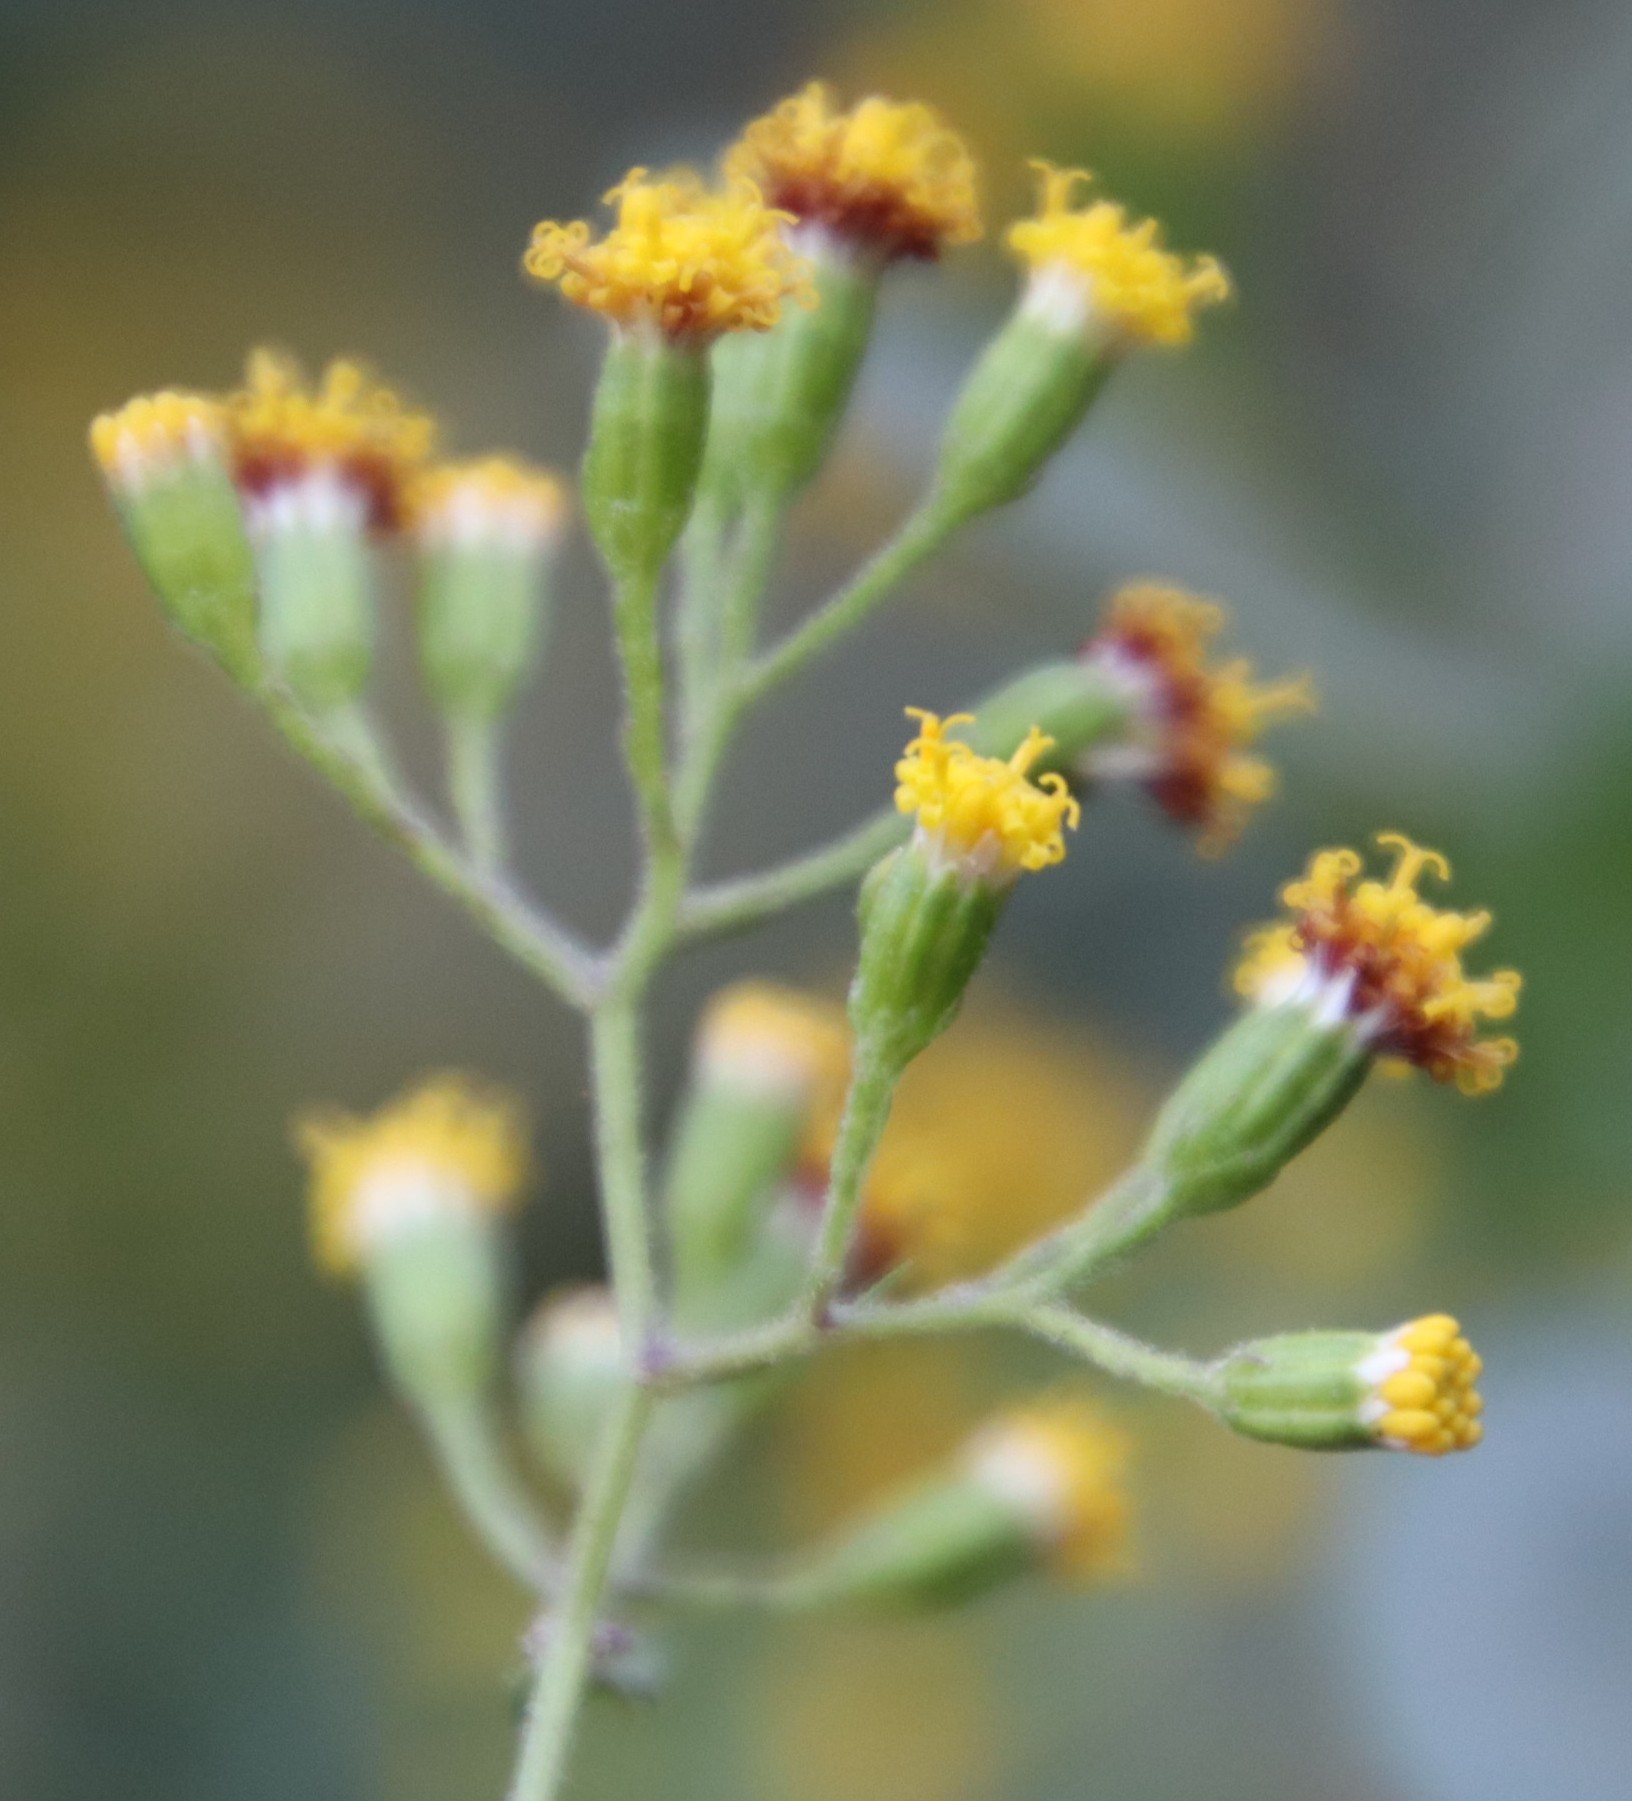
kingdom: Plantae
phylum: Tracheophyta
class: Magnoliopsida
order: Asterales
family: Asteraceae
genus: Senecio
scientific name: Senecio deltoideus
